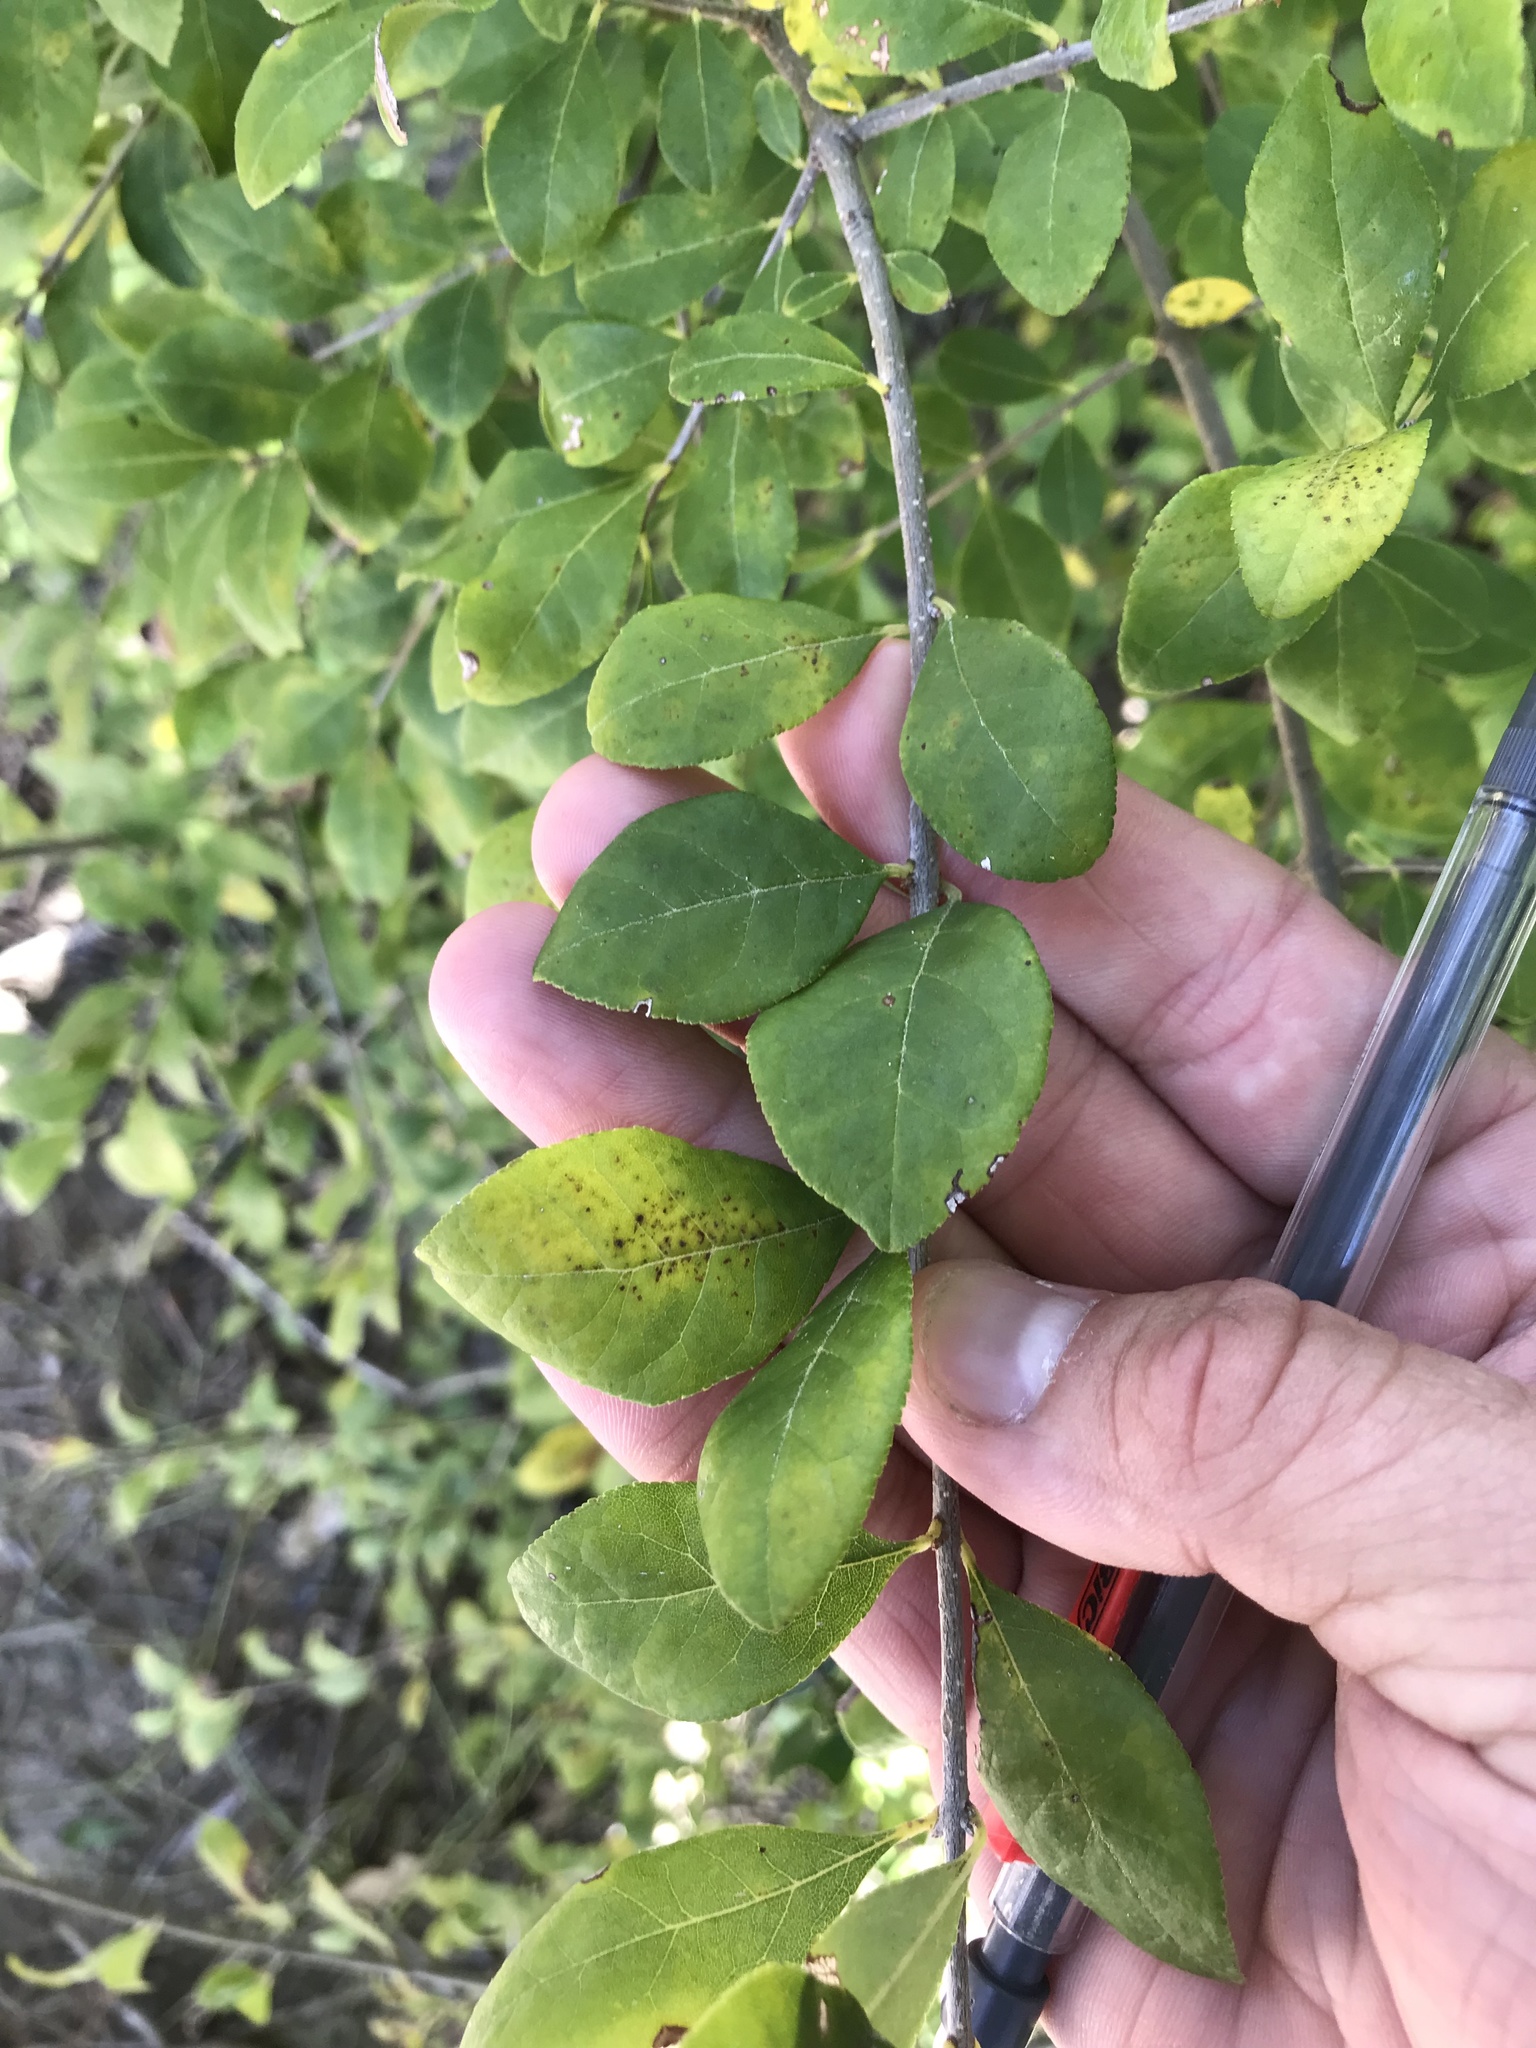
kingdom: Plantae
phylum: Tracheophyta
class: Magnoliopsida
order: Lamiales
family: Oleaceae
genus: Forestiera
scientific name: Forestiera ligustrina
